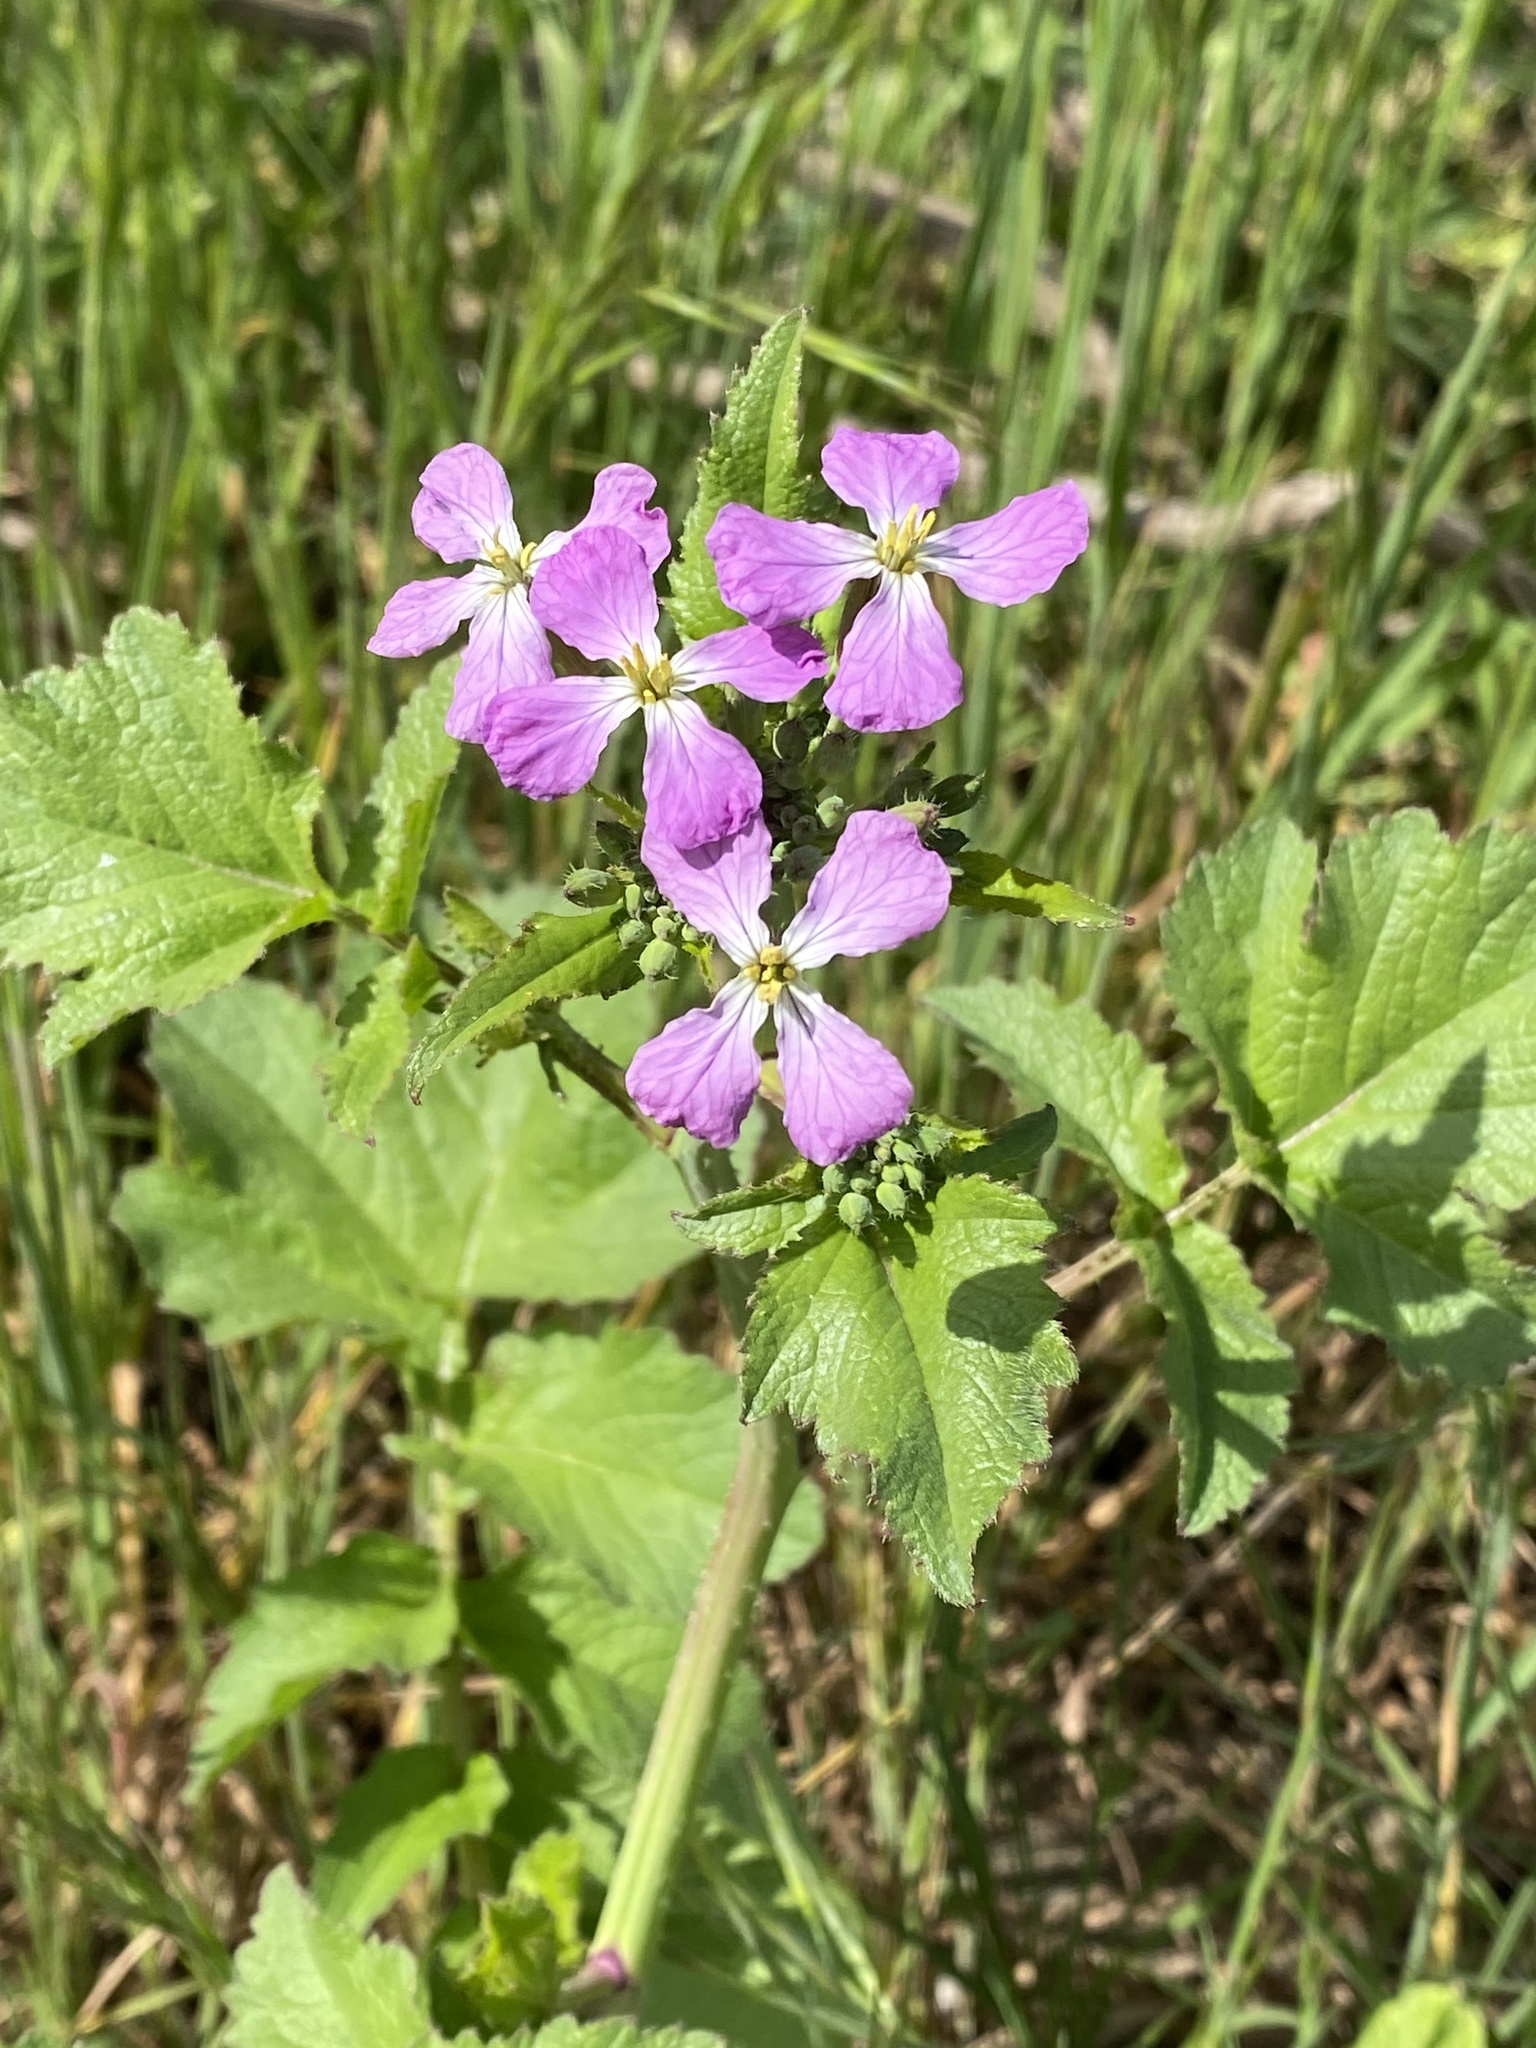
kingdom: Plantae
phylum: Tracheophyta
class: Magnoliopsida
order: Brassicales
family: Brassicaceae
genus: Raphanus
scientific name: Raphanus sativus
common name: Cultivated radish
